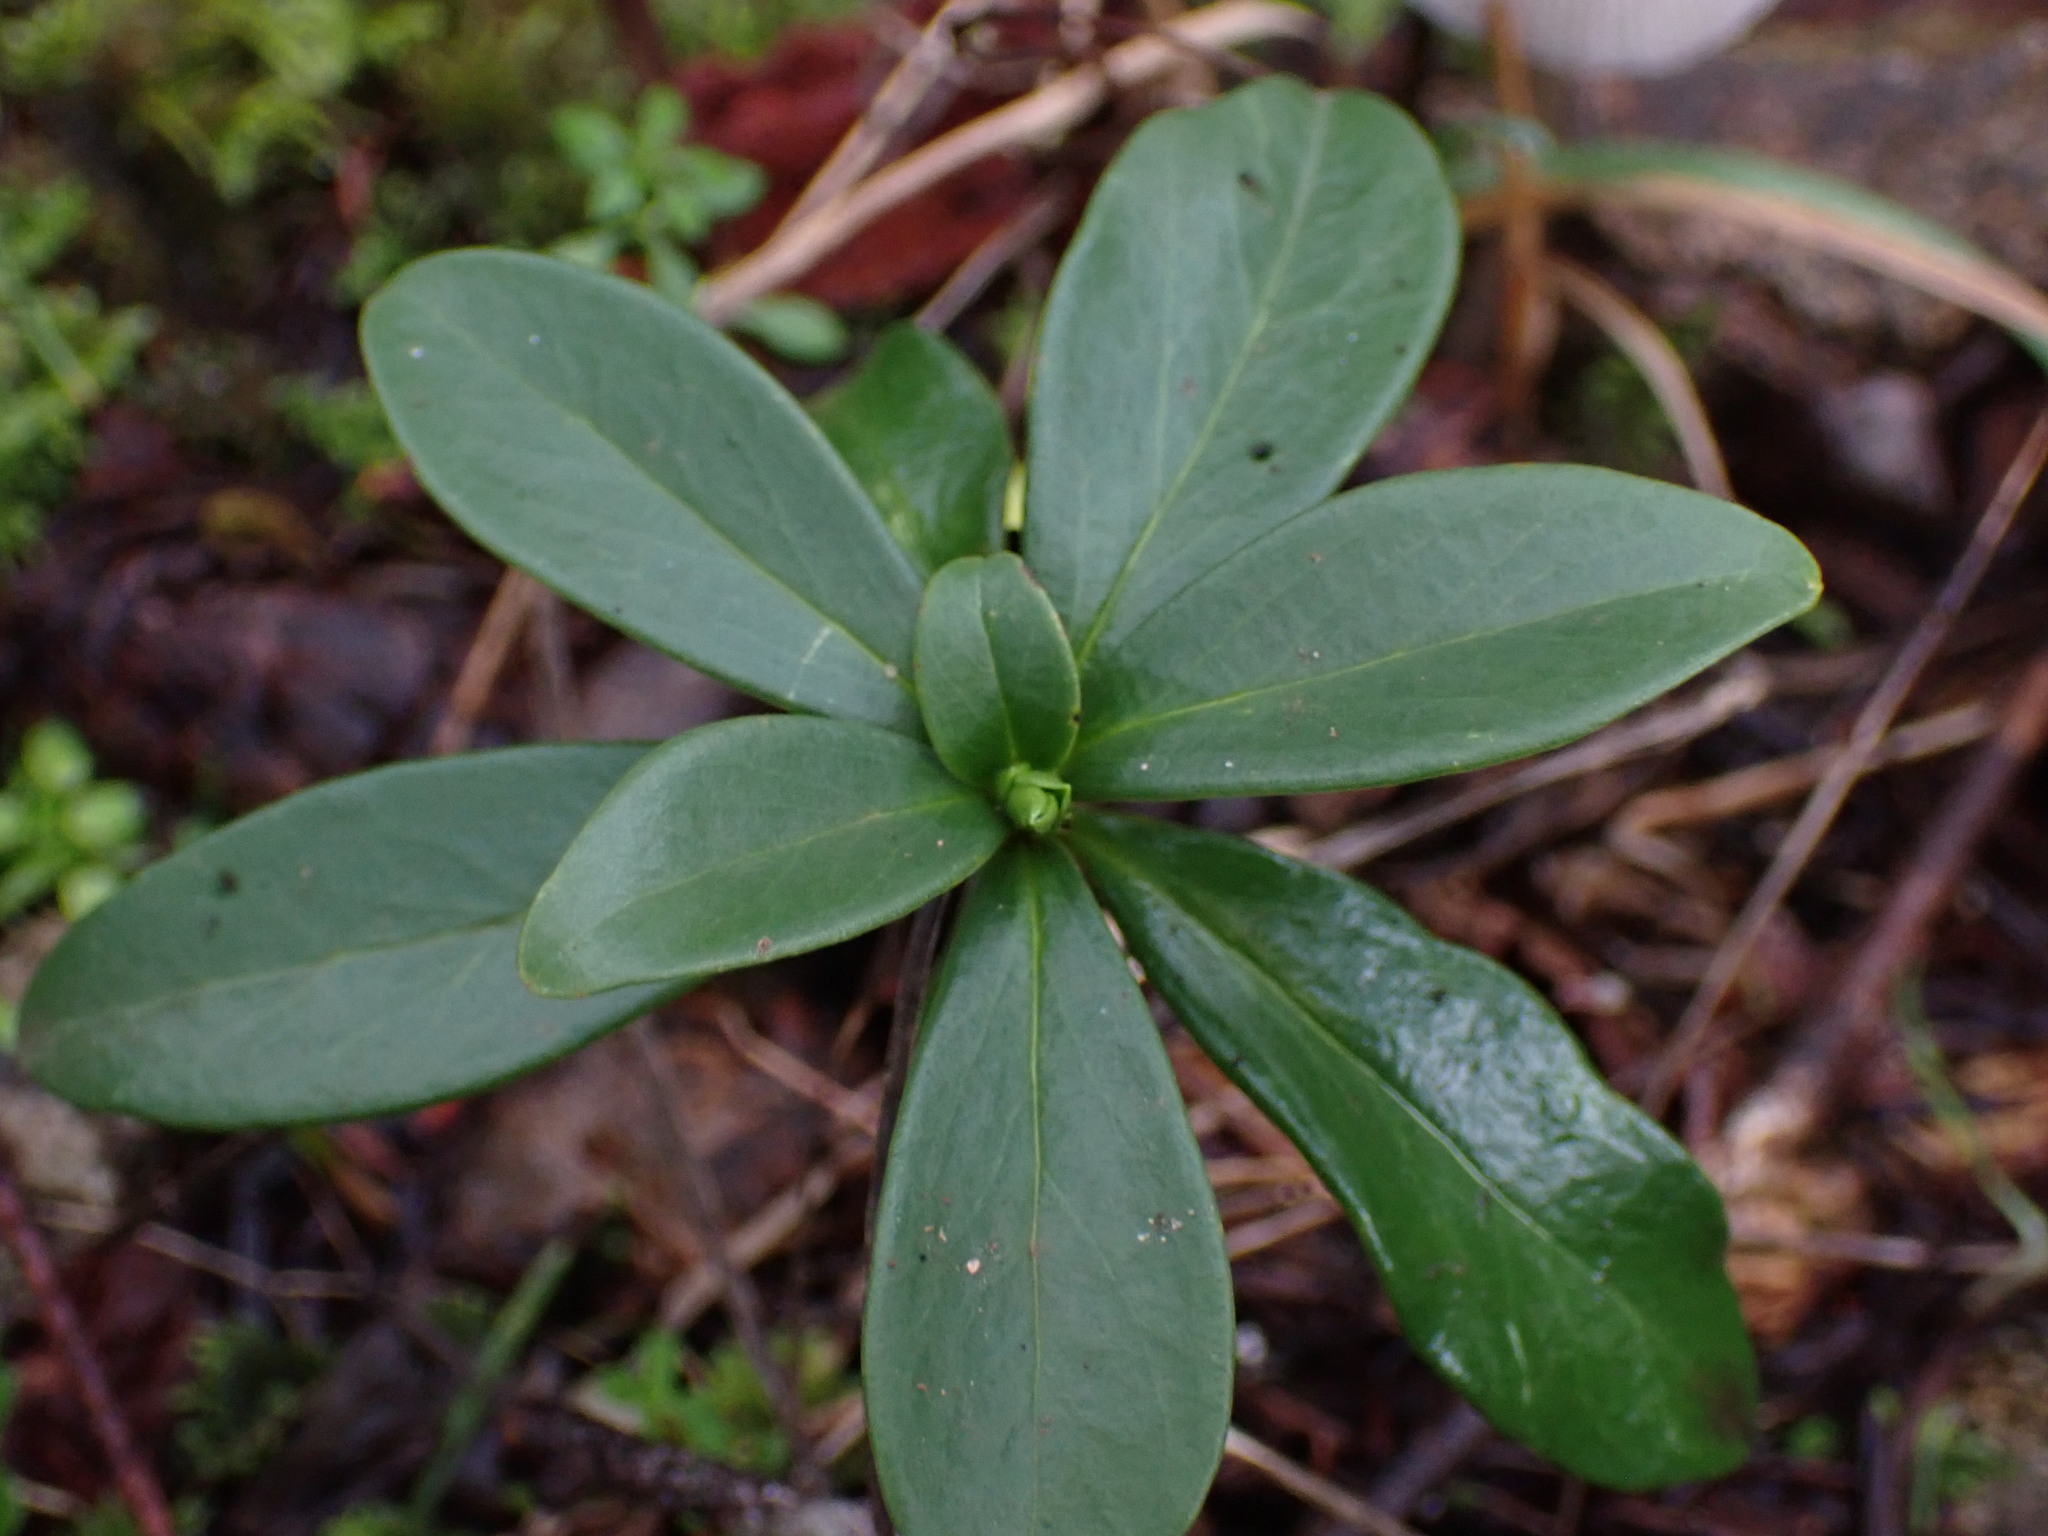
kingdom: Plantae
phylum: Tracheophyta
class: Magnoliopsida
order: Malvales
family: Thymelaeaceae
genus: Daphne
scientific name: Daphne laureola
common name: Spurge-laurel
